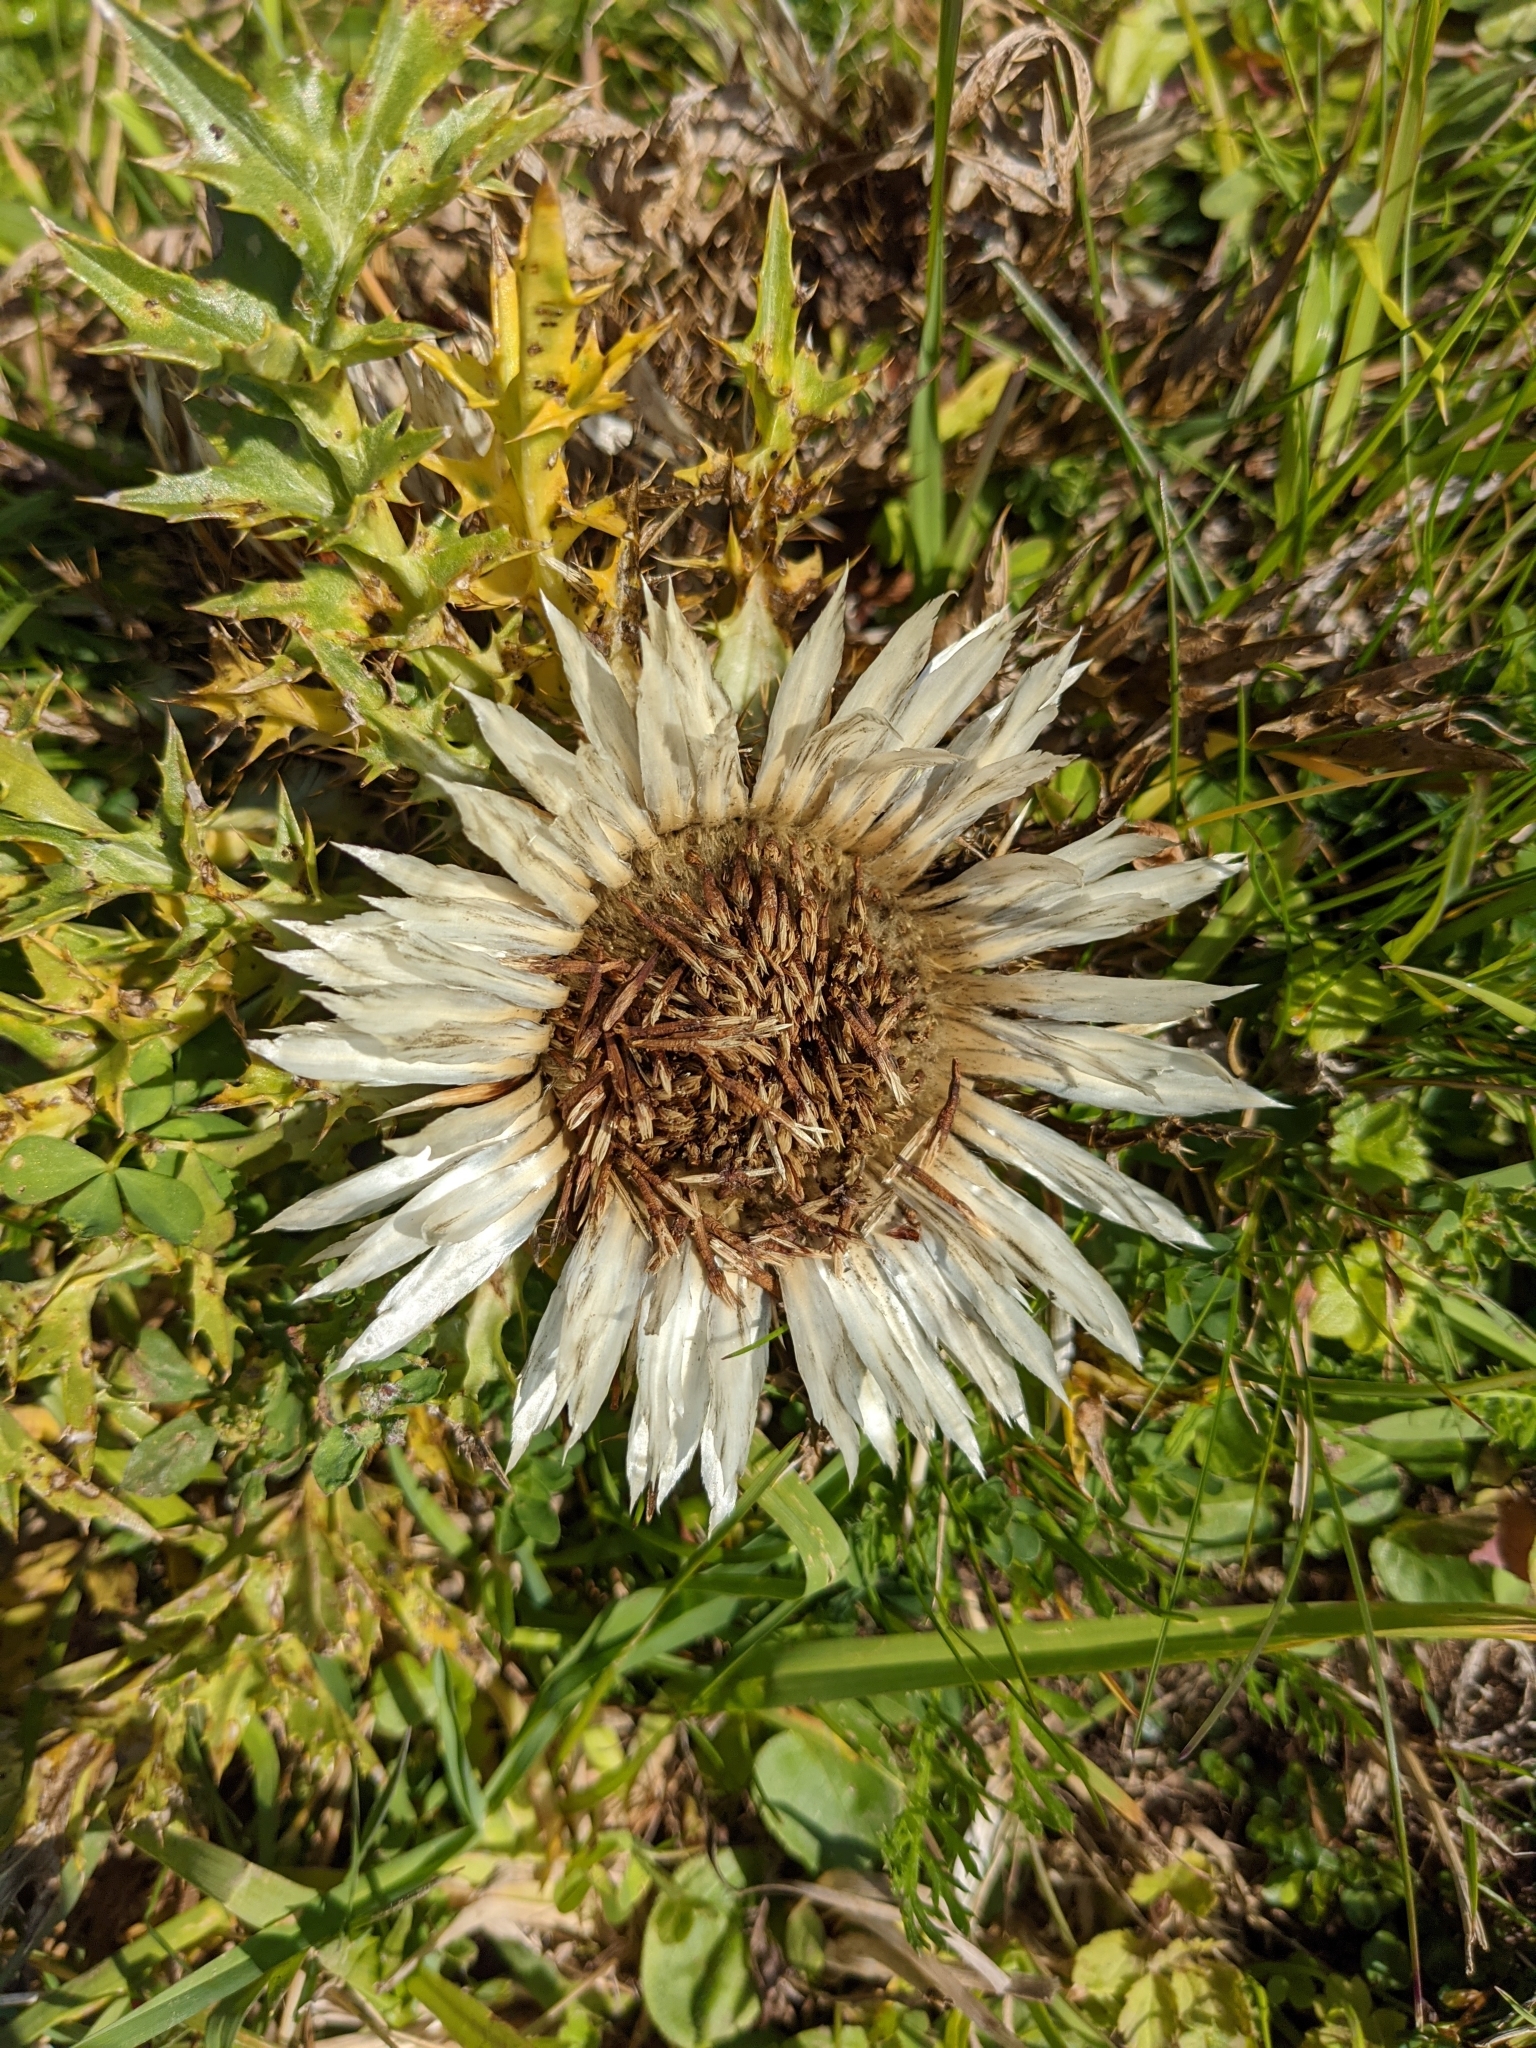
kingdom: Plantae
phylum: Tracheophyta
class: Magnoliopsida
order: Asterales
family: Asteraceae
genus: Carlina
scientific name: Carlina acaulis
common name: Stemless carline thistle
